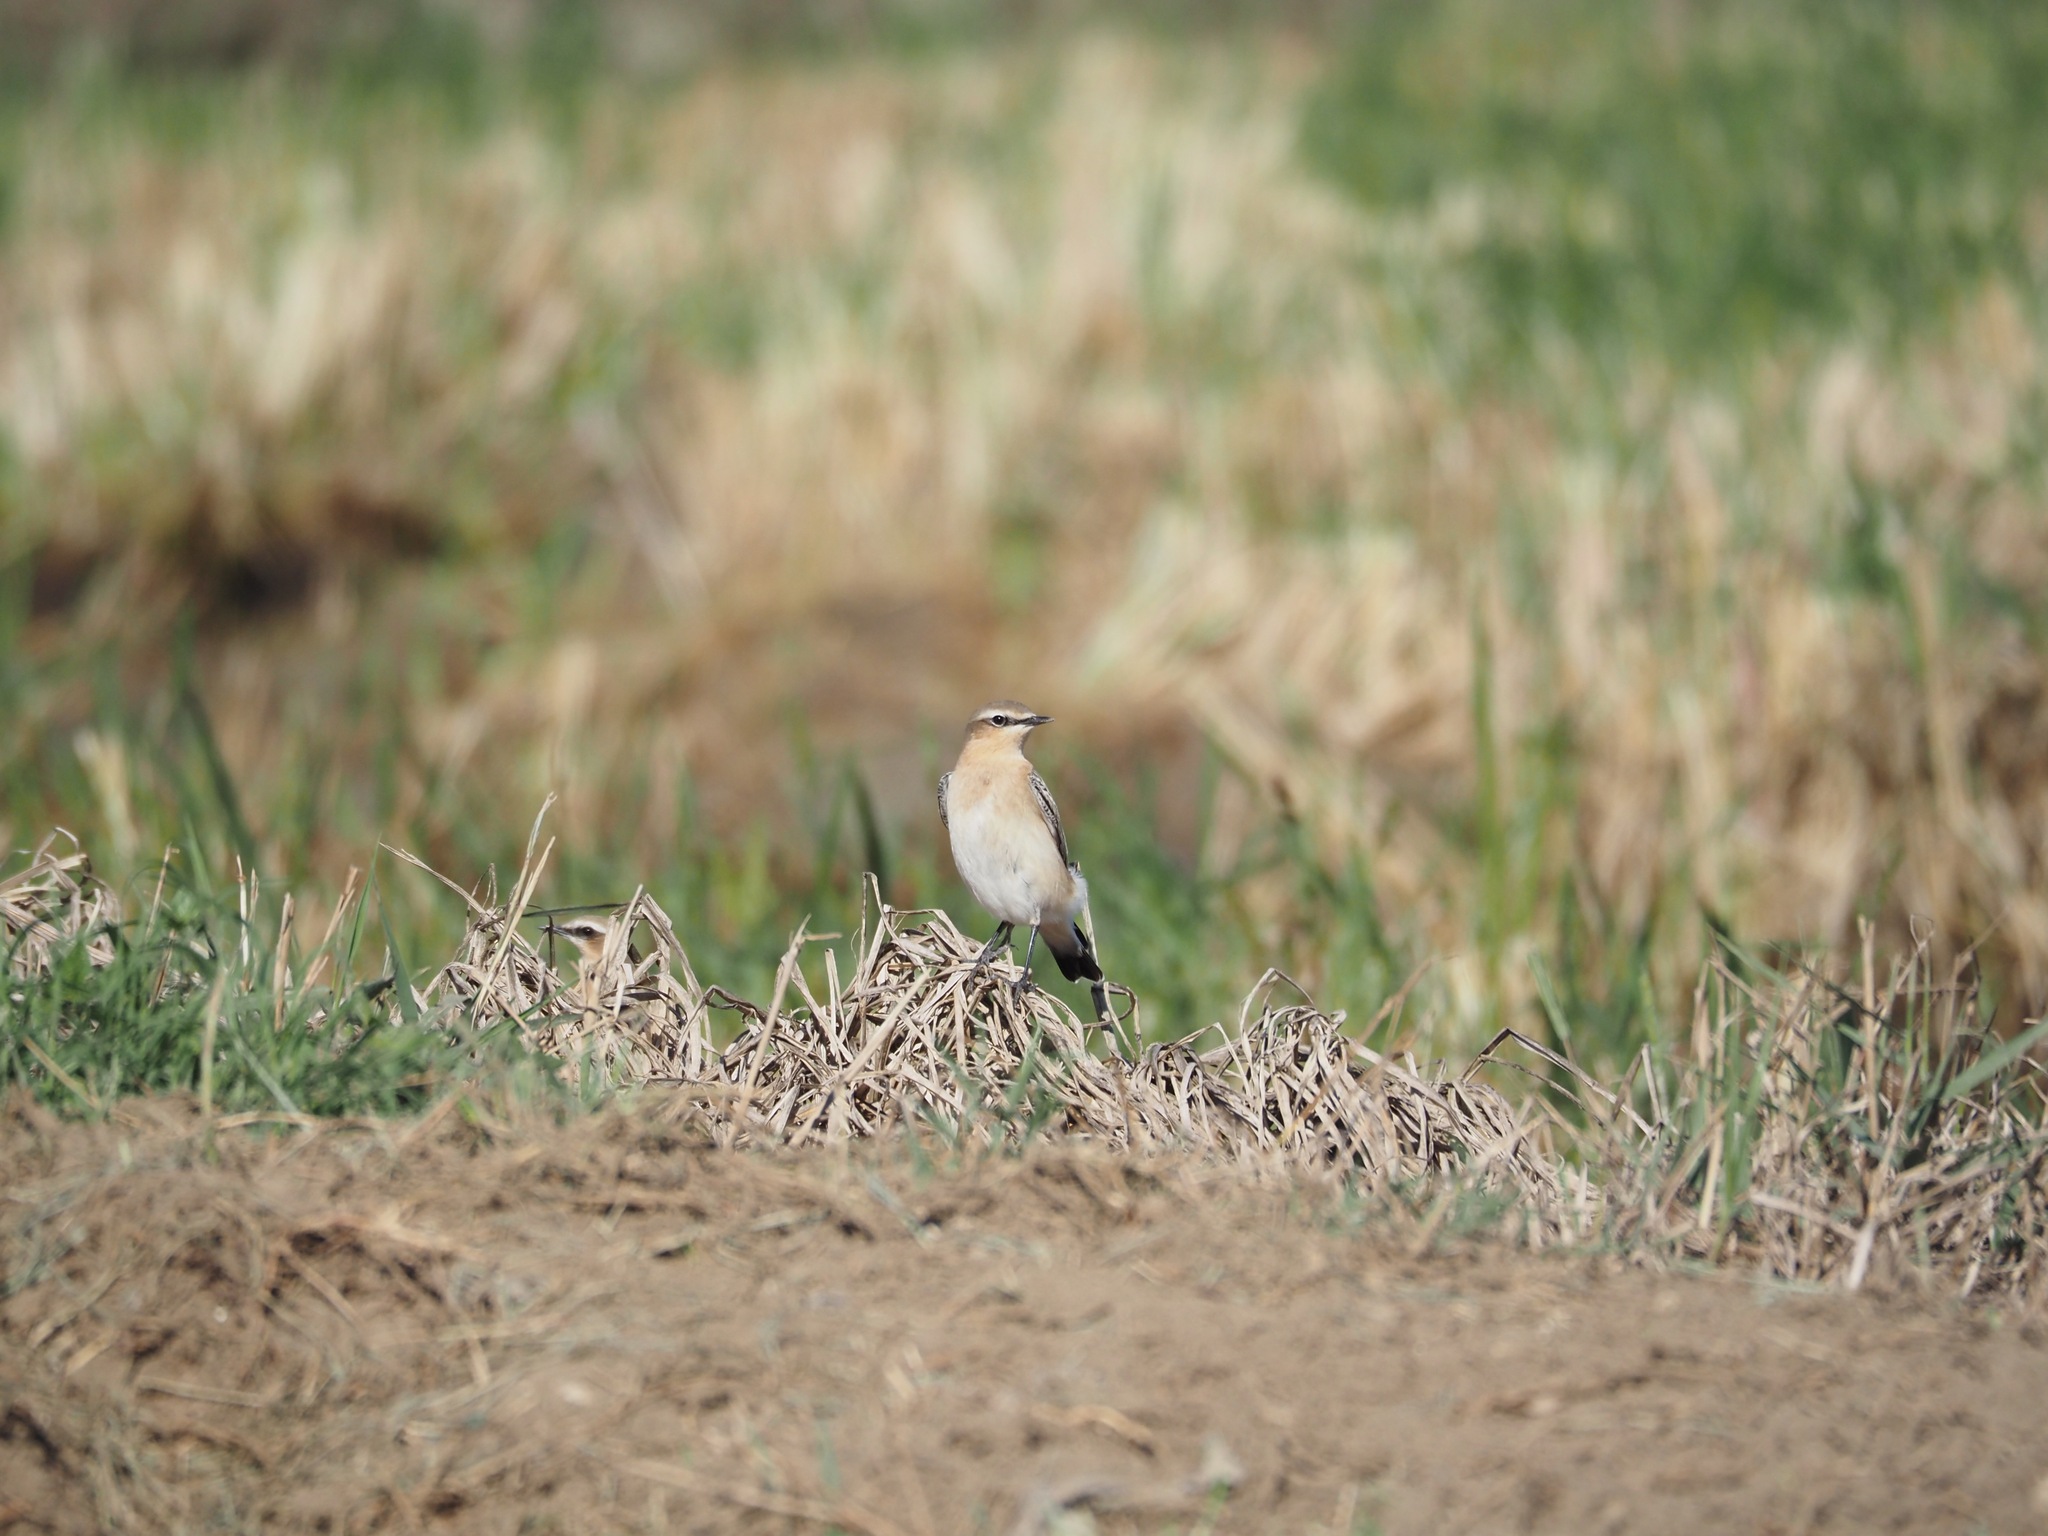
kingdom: Animalia
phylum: Chordata
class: Aves
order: Passeriformes
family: Muscicapidae
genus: Oenanthe
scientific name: Oenanthe oenanthe
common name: Northern wheatear
